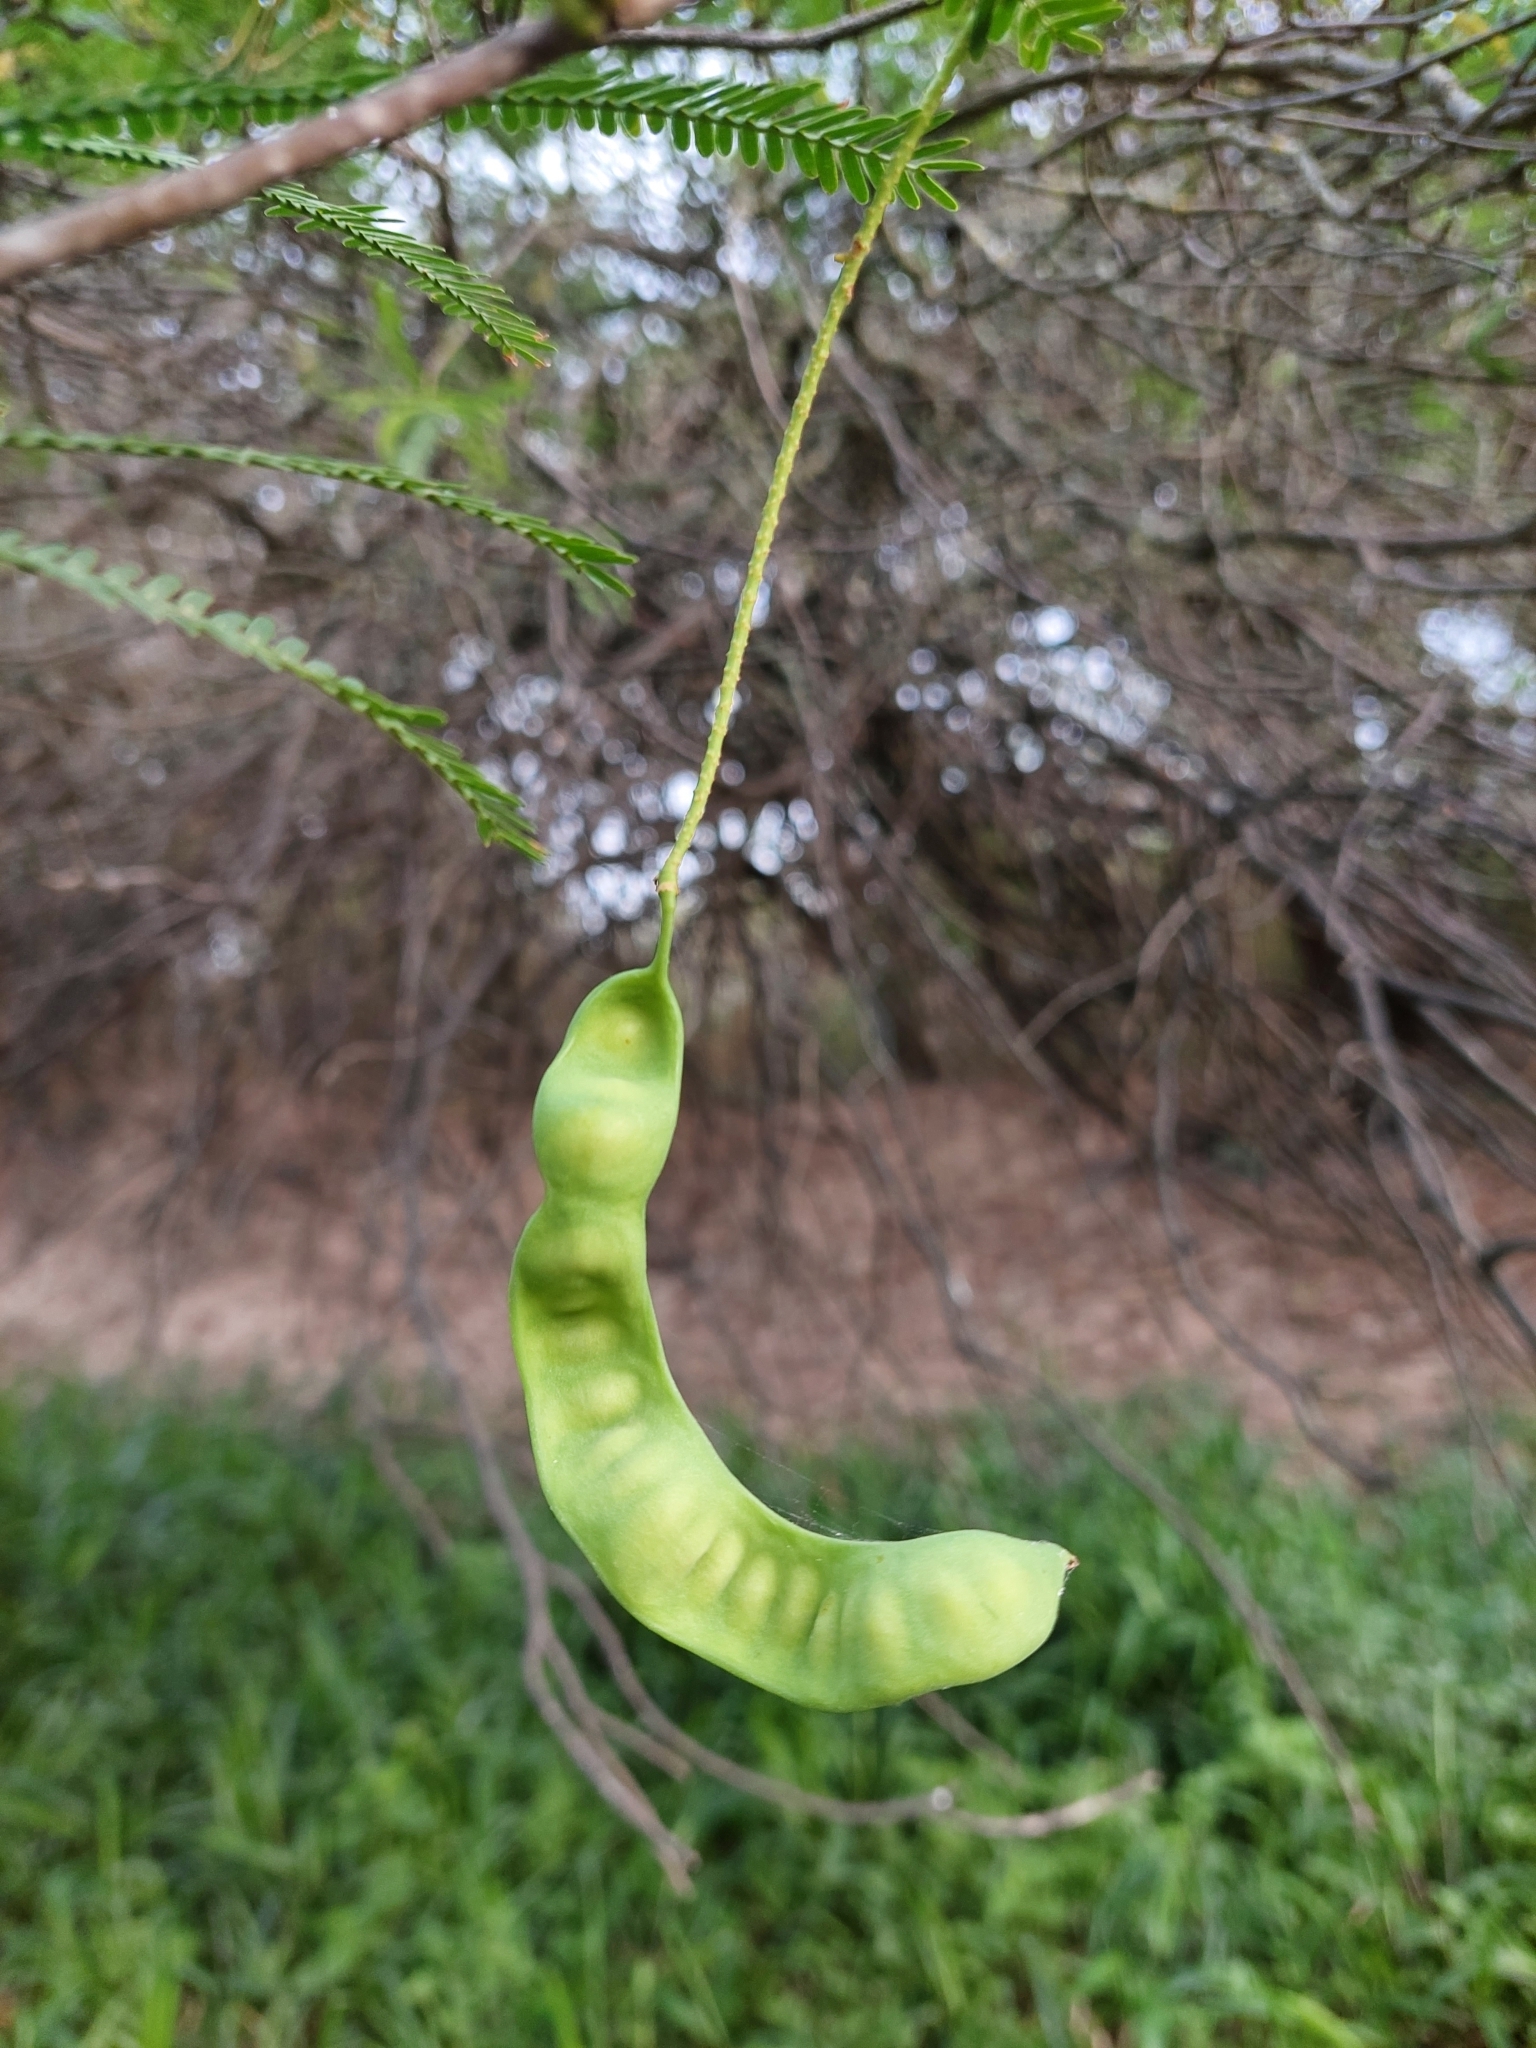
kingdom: Plantae
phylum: Tracheophyta
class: Magnoliopsida
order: Fabales
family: Fabaceae
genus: Prosopis
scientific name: Prosopis alba
